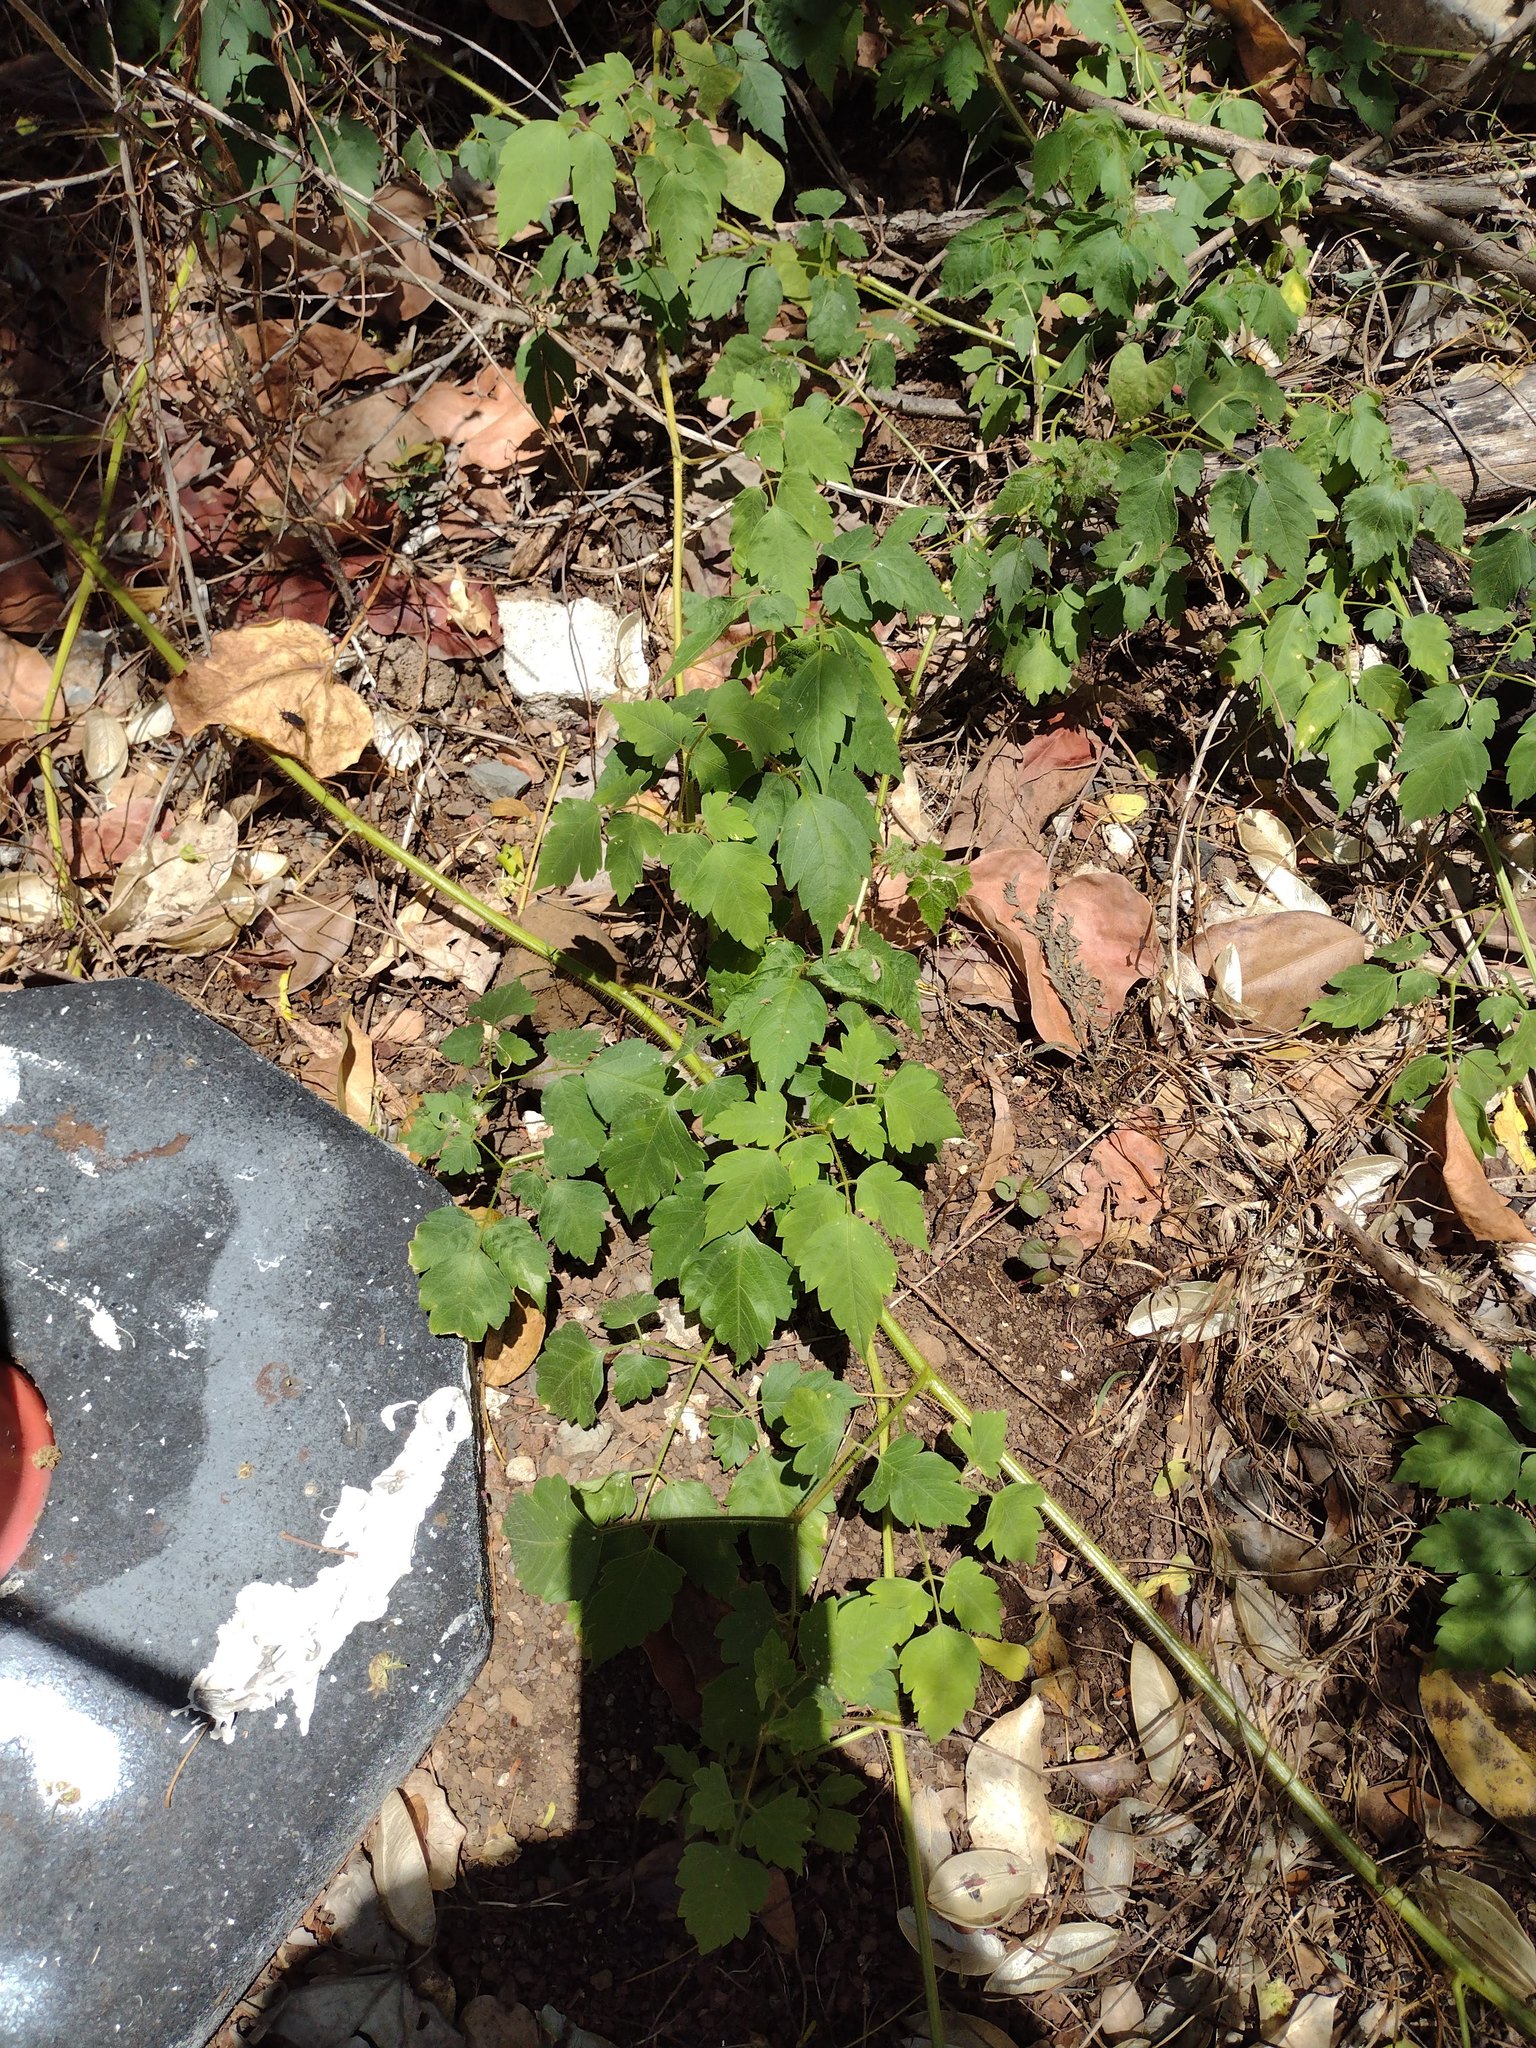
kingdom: Plantae
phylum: Tracheophyta
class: Magnoliopsida
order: Sapindales
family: Sapindaceae
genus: Cardiospermum
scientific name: Cardiospermum grandiflorum
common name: Balloon vine
